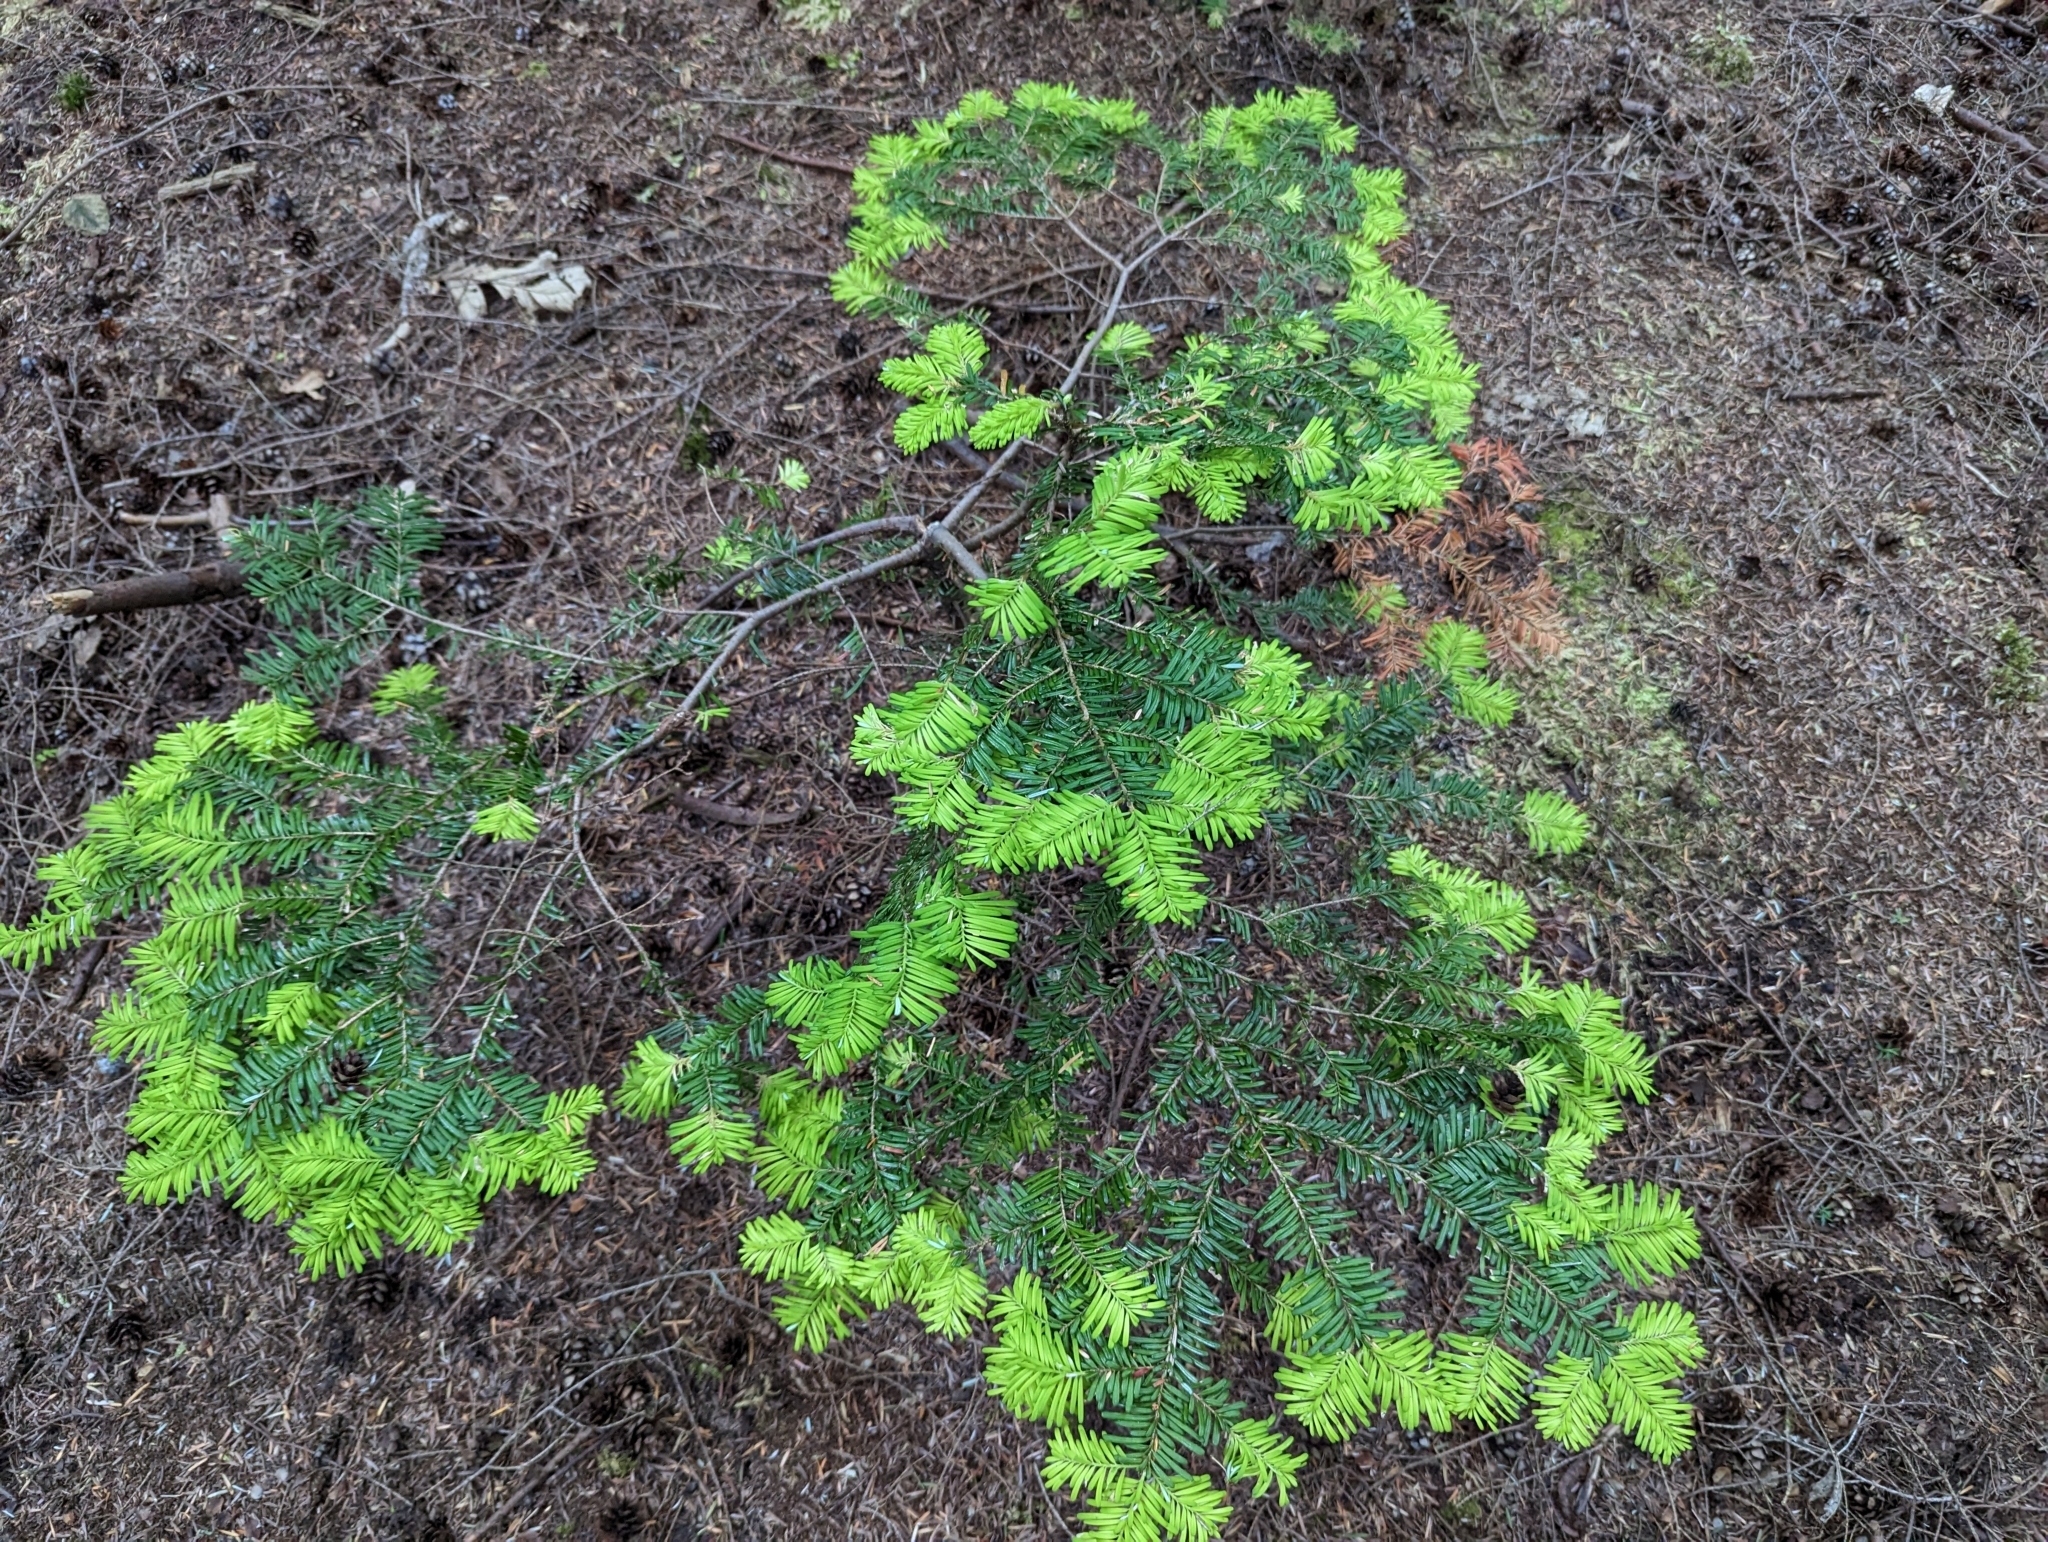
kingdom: Plantae
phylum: Tracheophyta
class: Pinopsida
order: Pinales
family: Pinaceae
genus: Abies
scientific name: Abies amabilis
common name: Pacific silver fir
